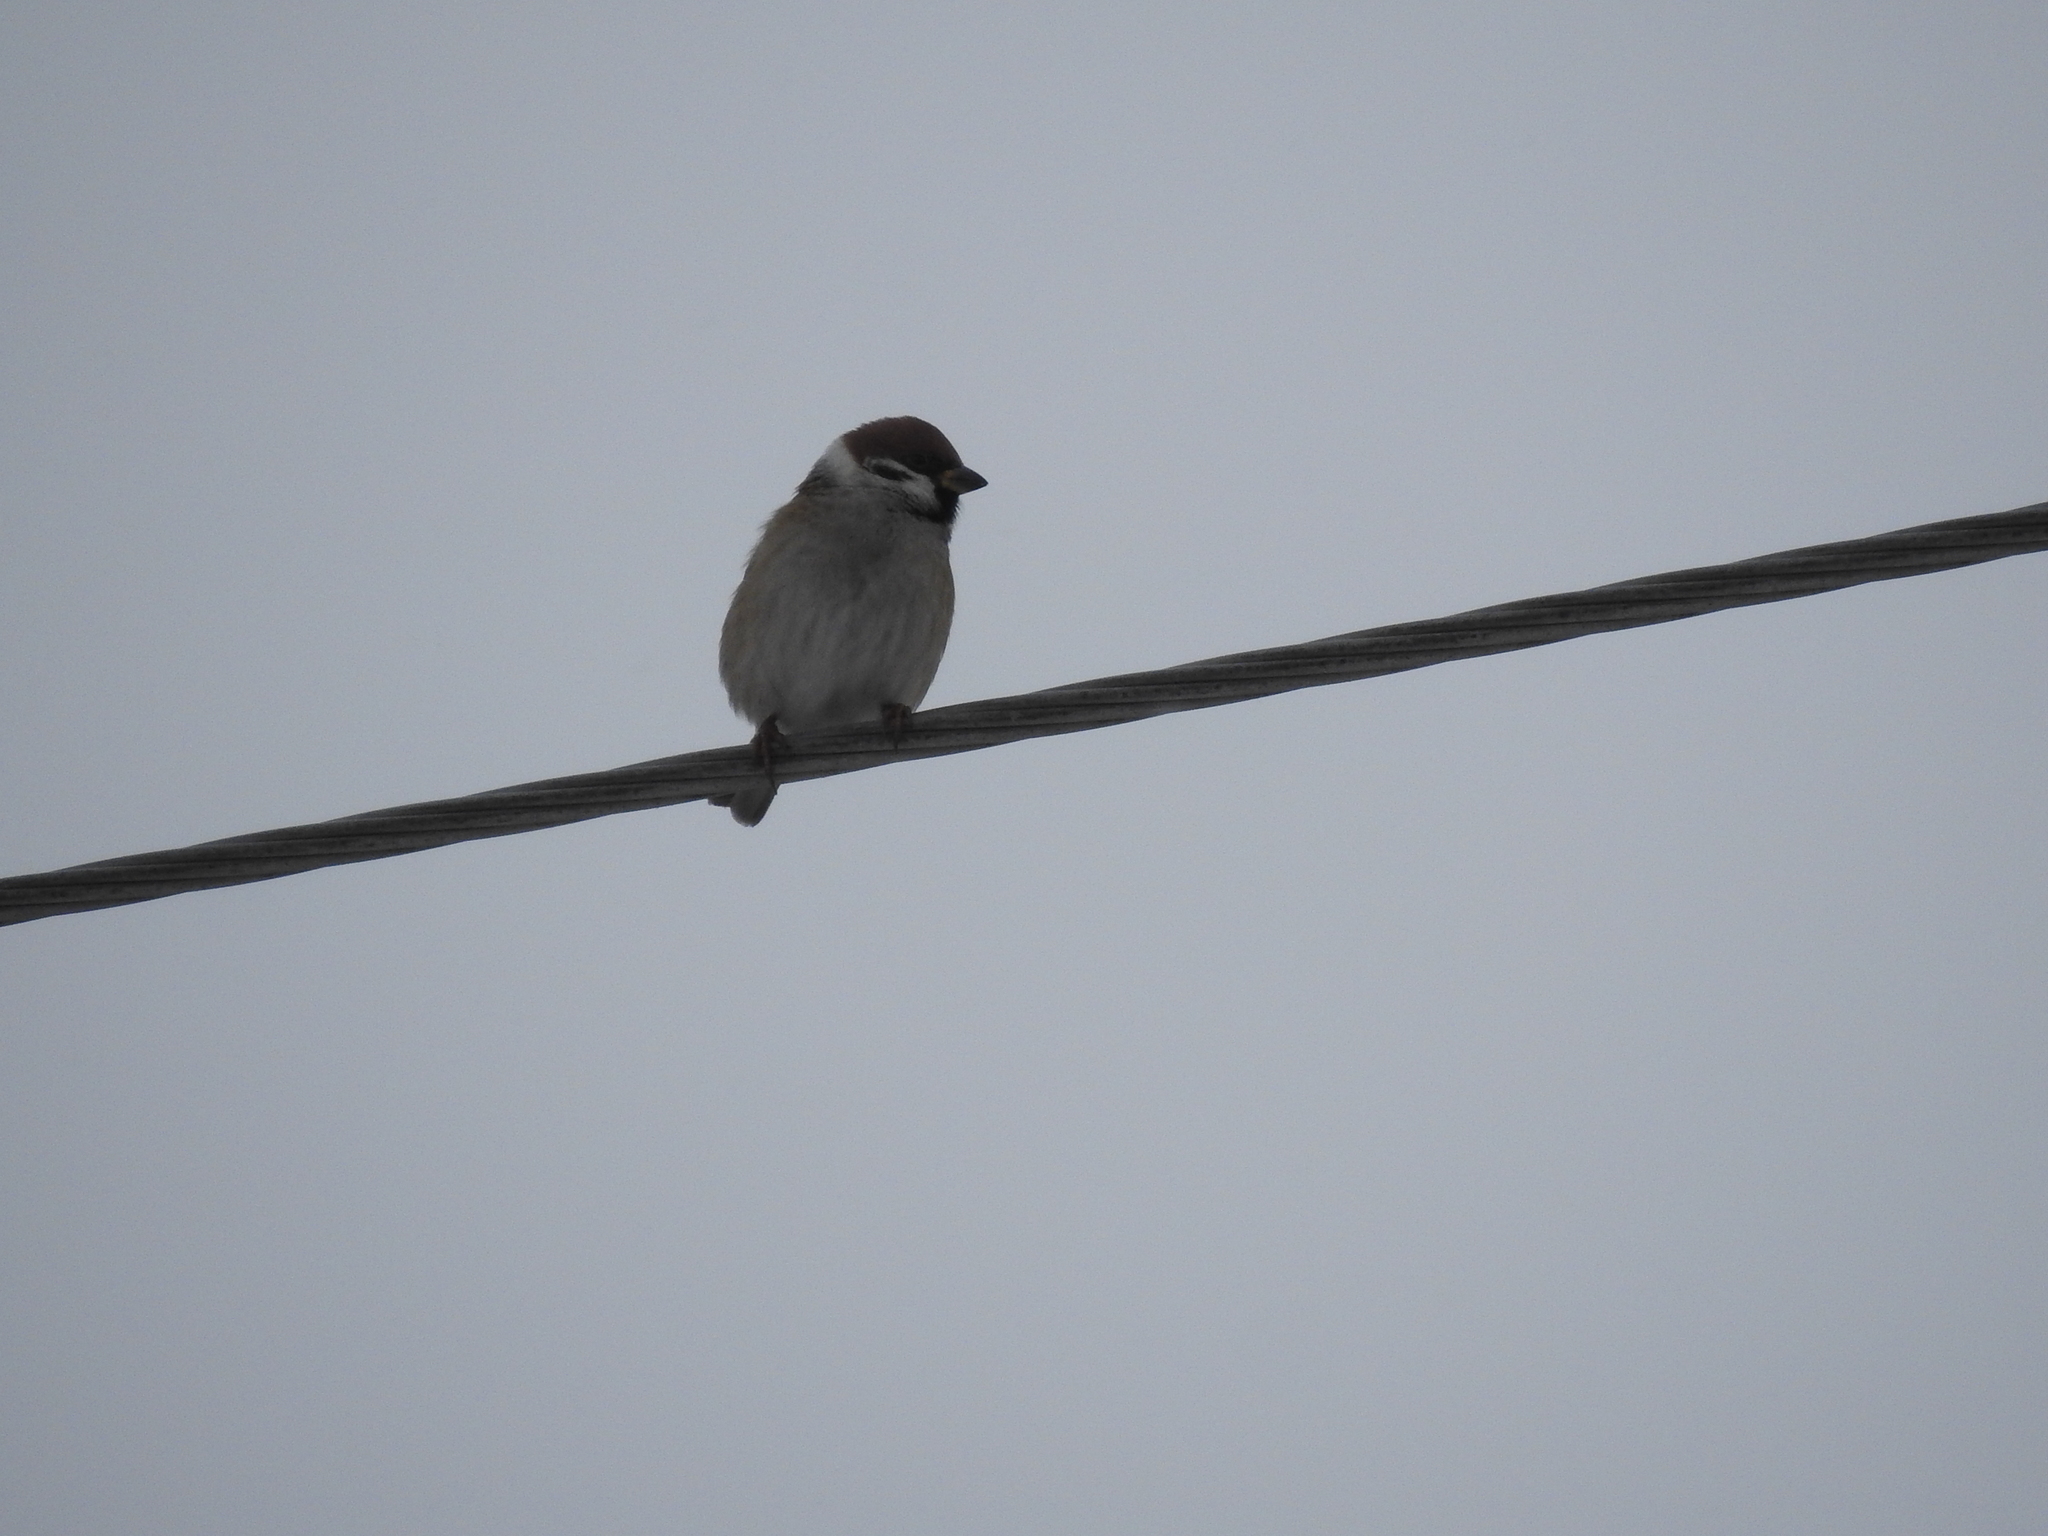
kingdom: Animalia
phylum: Chordata
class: Aves
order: Passeriformes
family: Passeridae
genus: Passer
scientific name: Passer montanus
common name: Eurasian tree sparrow
